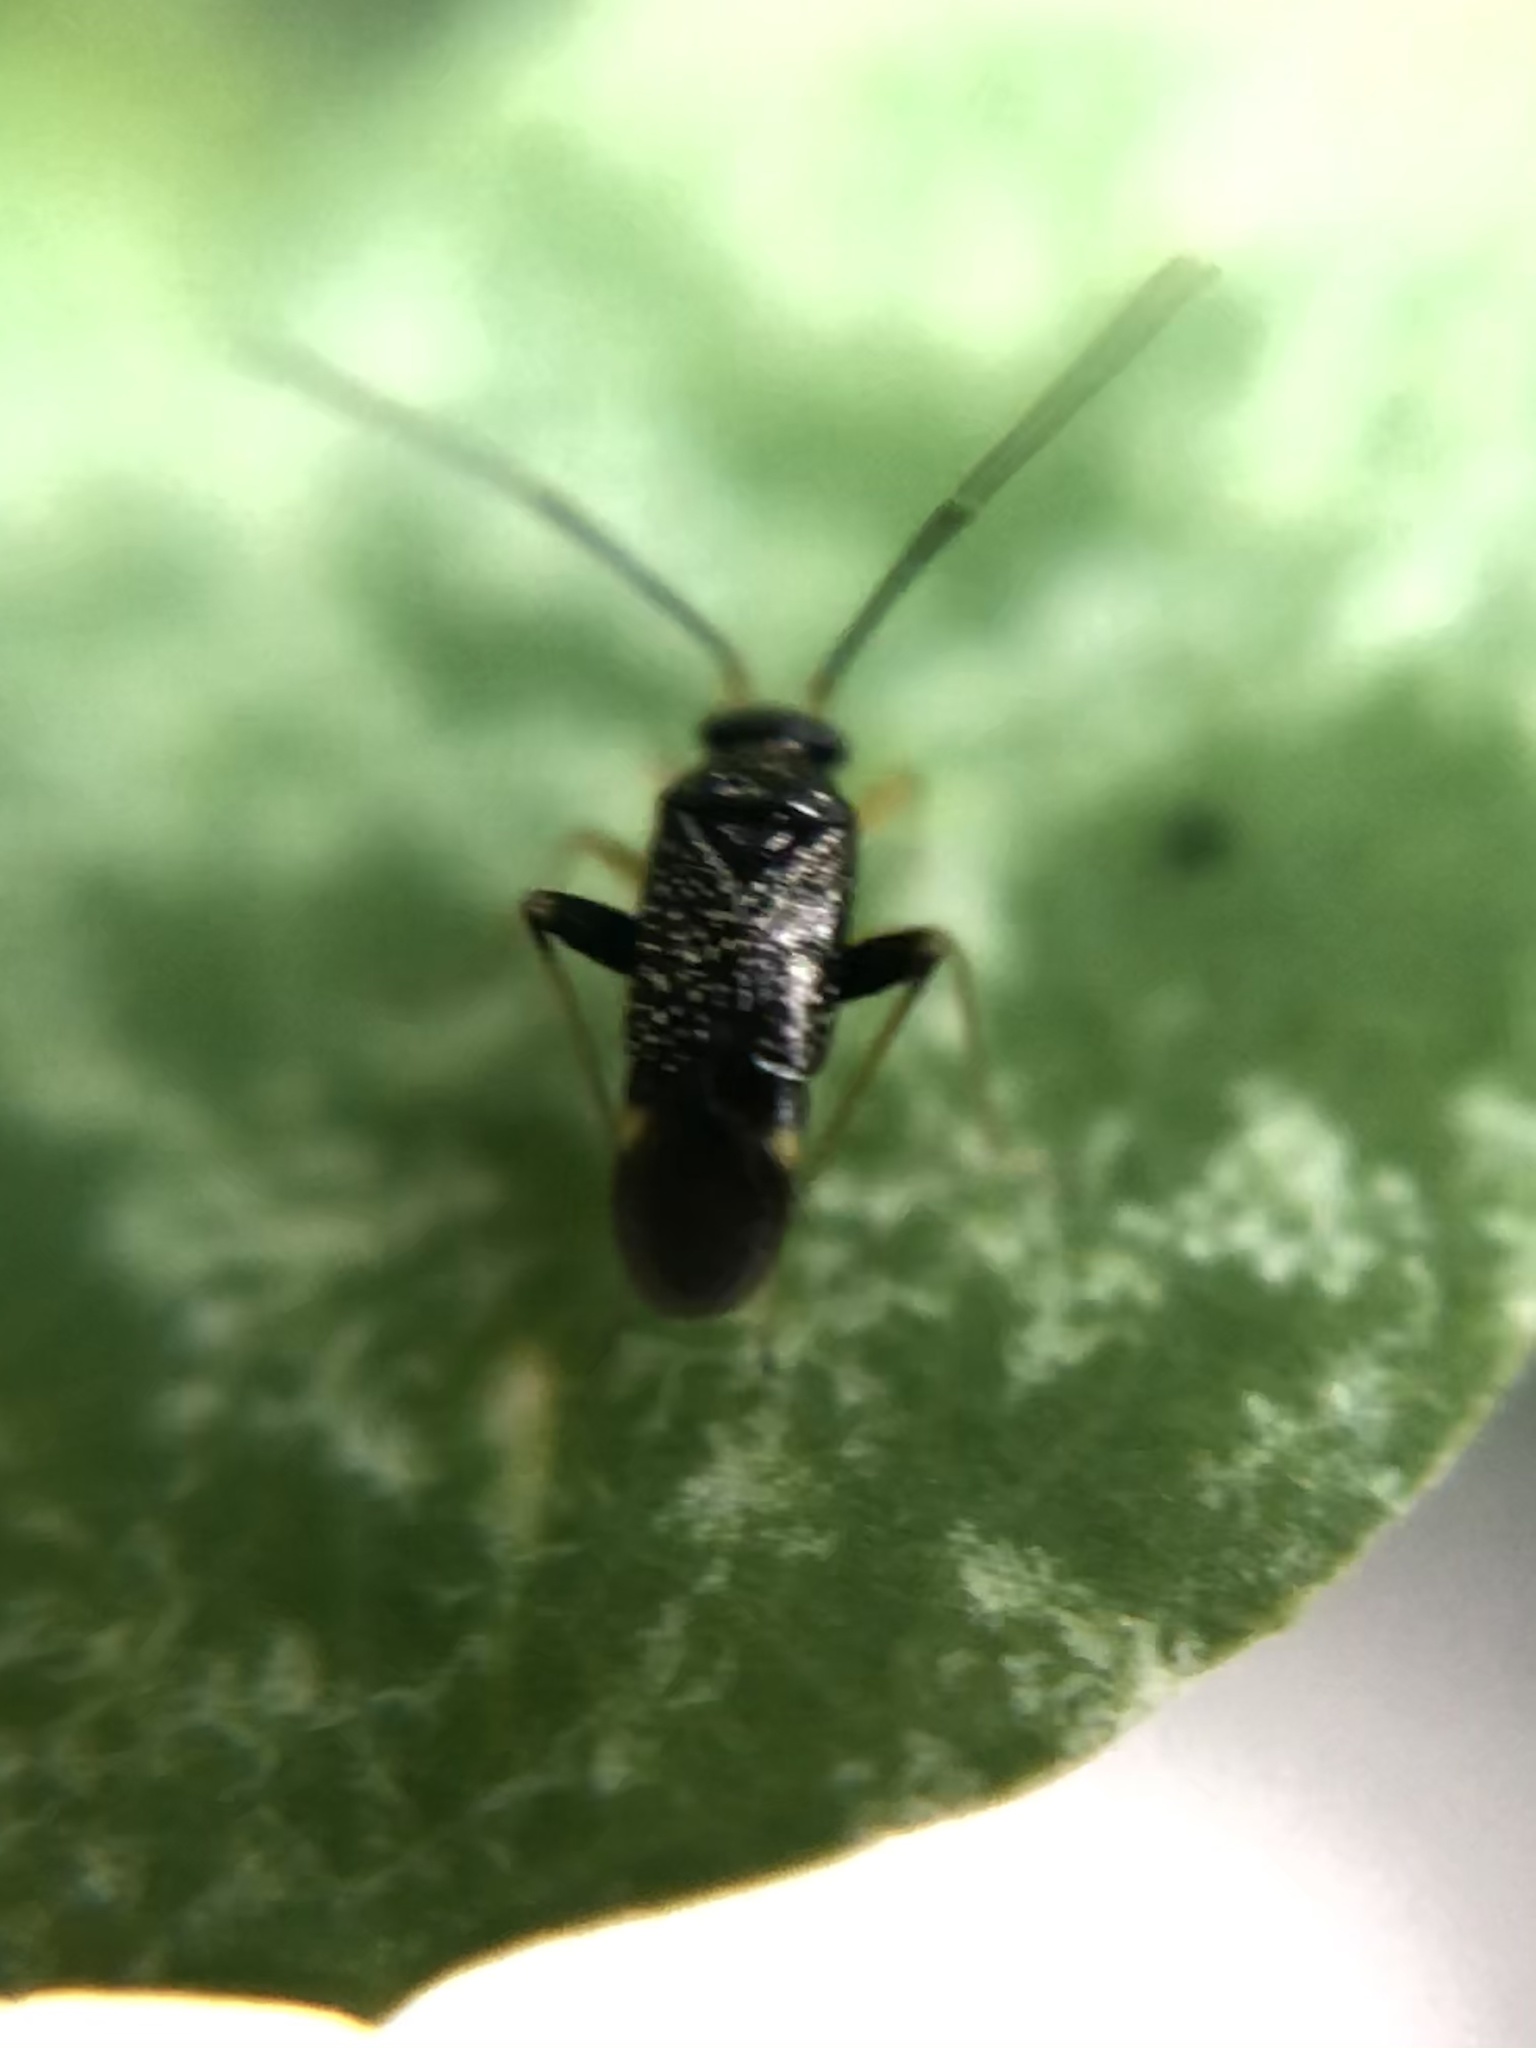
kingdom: Animalia
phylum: Arthropoda
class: Insecta
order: Hemiptera
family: Miridae
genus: Microtechnites
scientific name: Microtechnites bractatus
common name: Garden fleahopper
